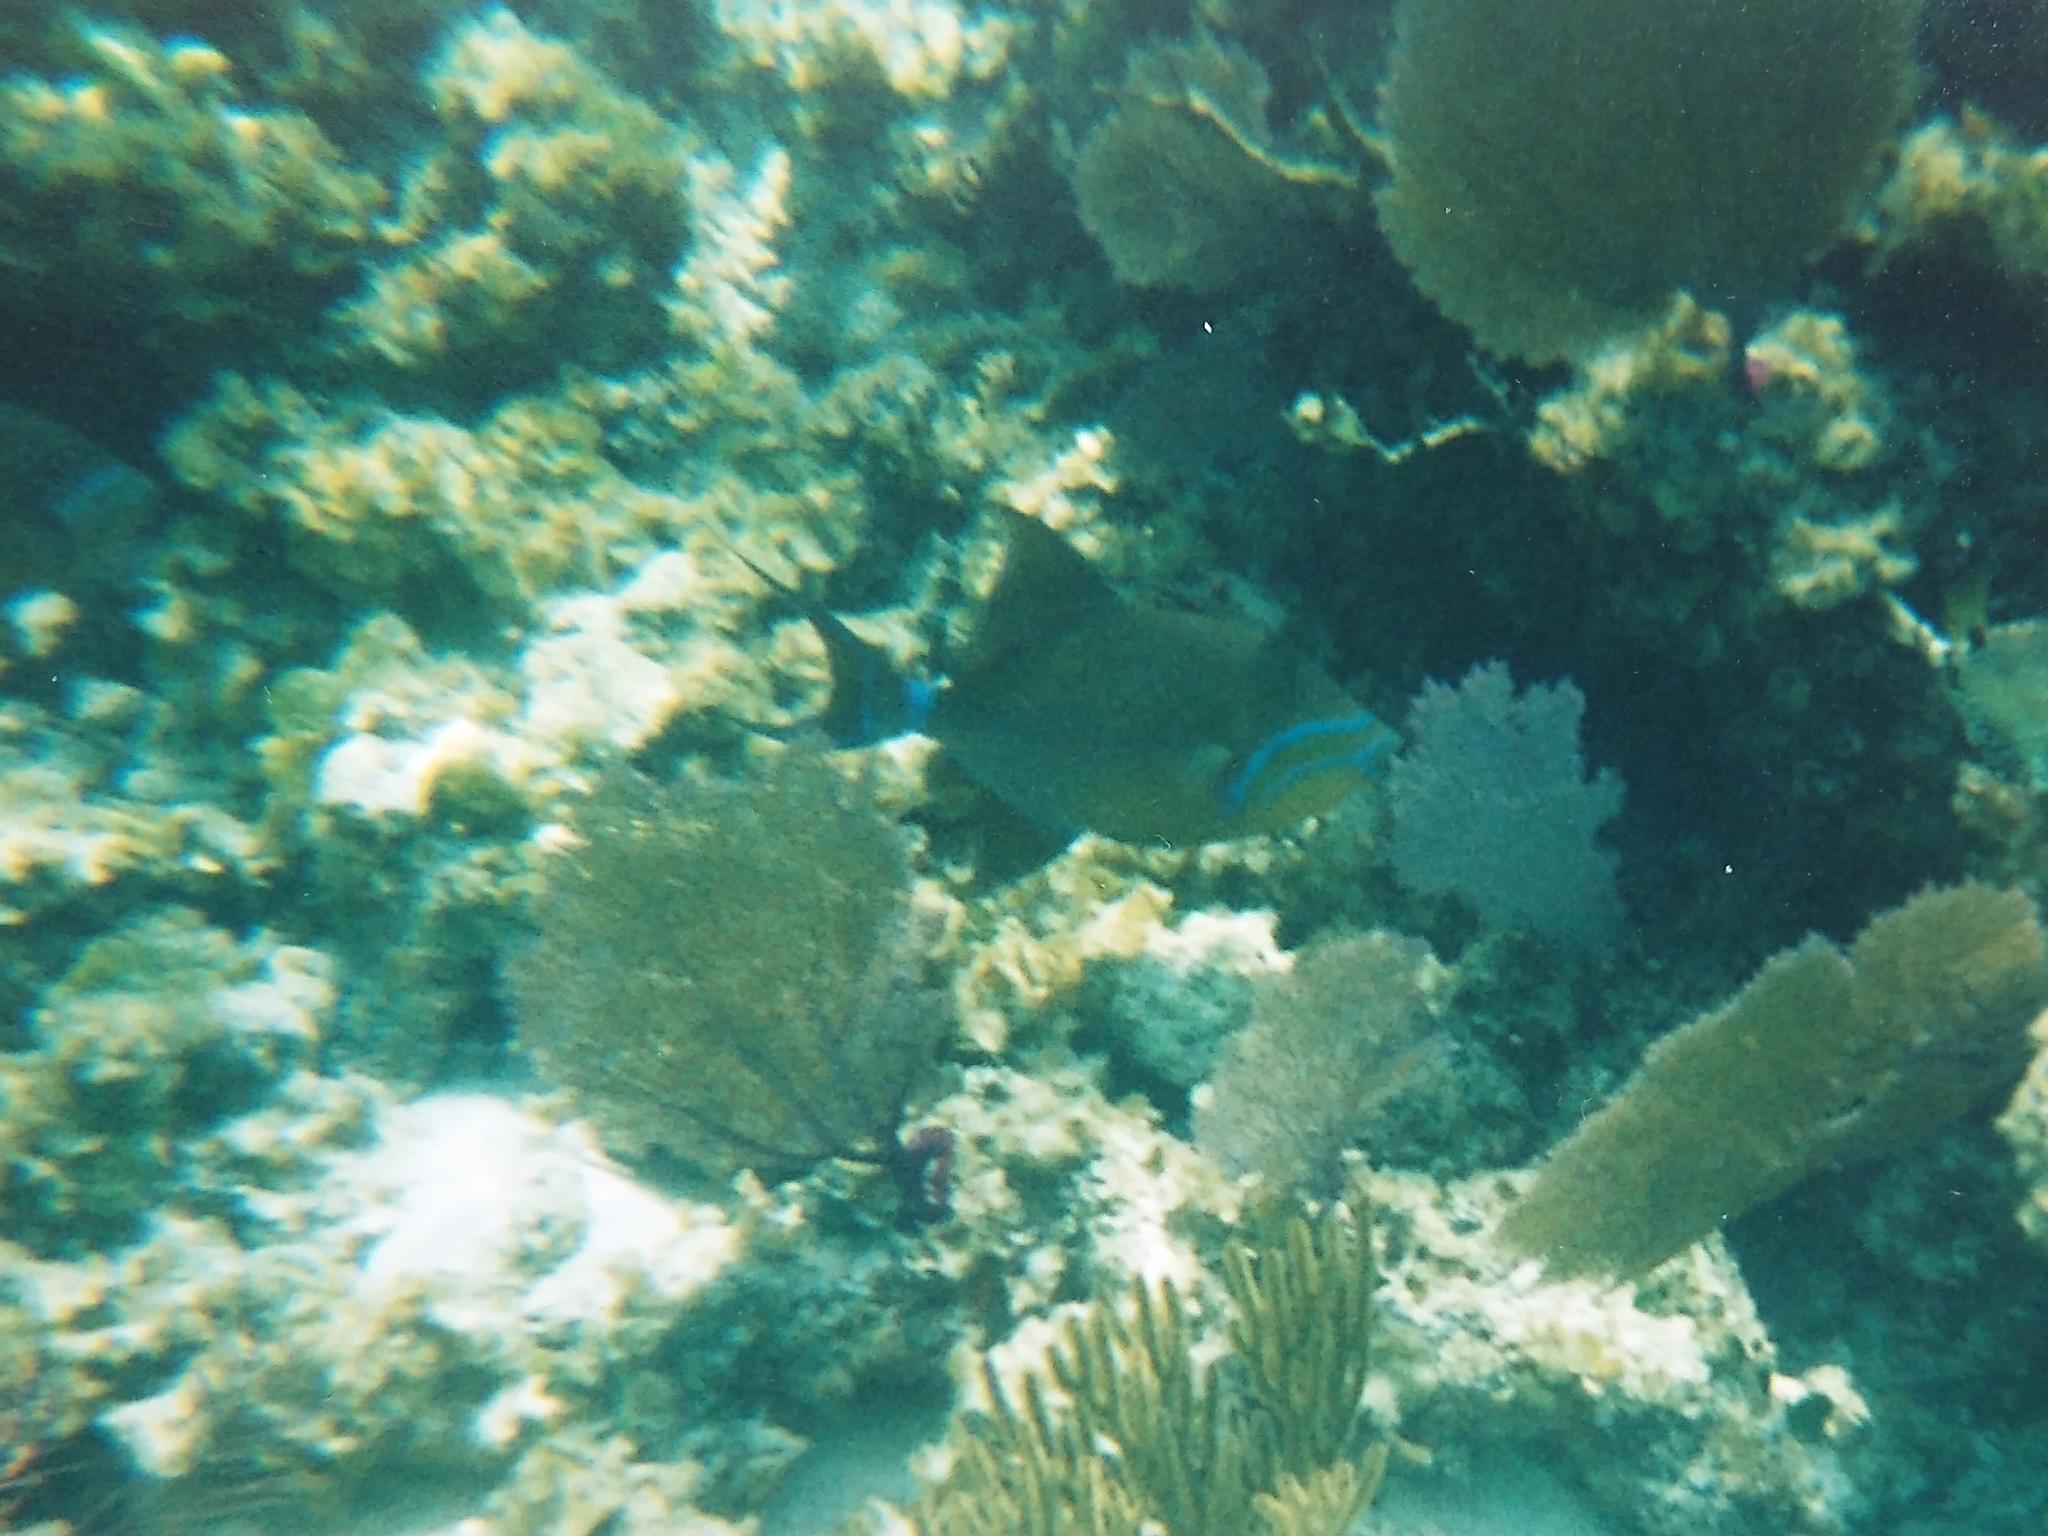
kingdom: Animalia
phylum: Chordata
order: Tetraodontiformes
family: Balistidae
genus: Balistes
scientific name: Balistes vetula
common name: Queen triggerfish
